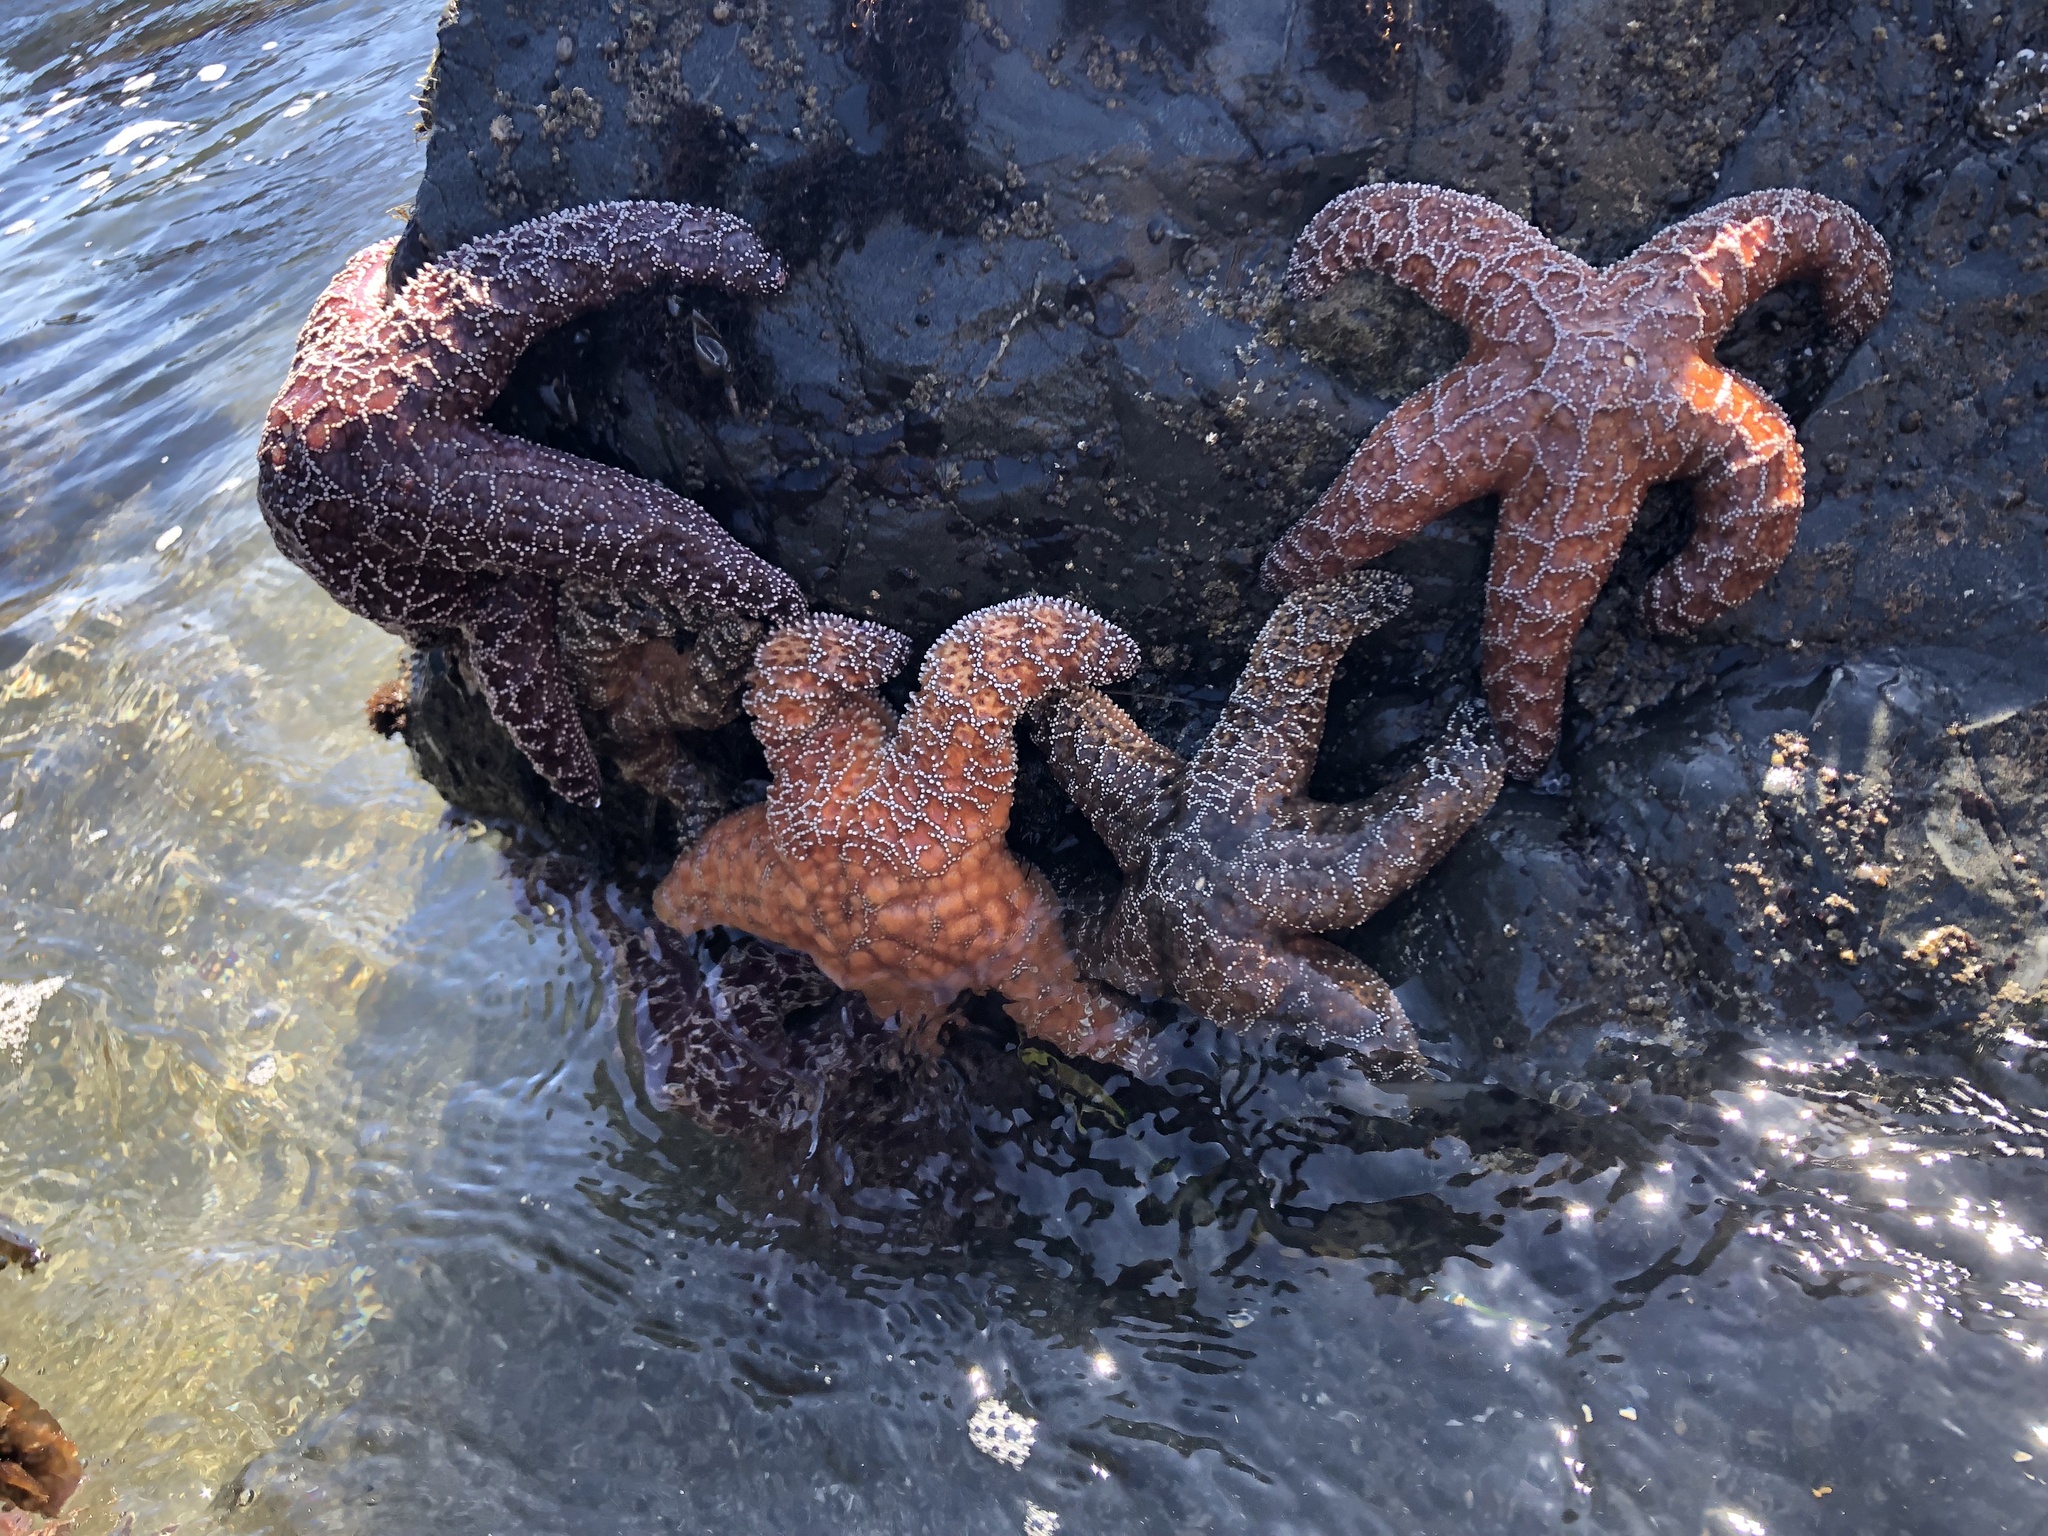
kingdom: Animalia
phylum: Echinodermata
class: Asteroidea
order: Forcipulatida
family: Asteriidae
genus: Pisaster
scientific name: Pisaster ochraceus
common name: Ochre stars
